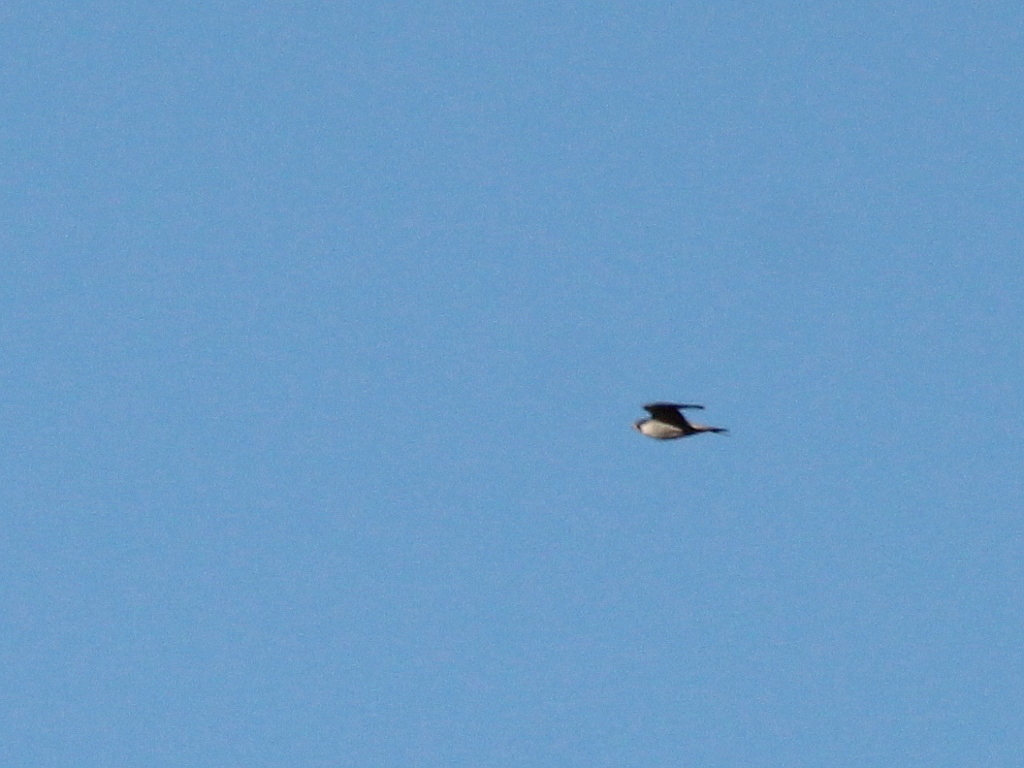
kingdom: Animalia
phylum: Chordata
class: Aves
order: Falconiformes
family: Falconidae
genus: Falco
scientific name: Falco peregrinus
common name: Peregrine falcon
